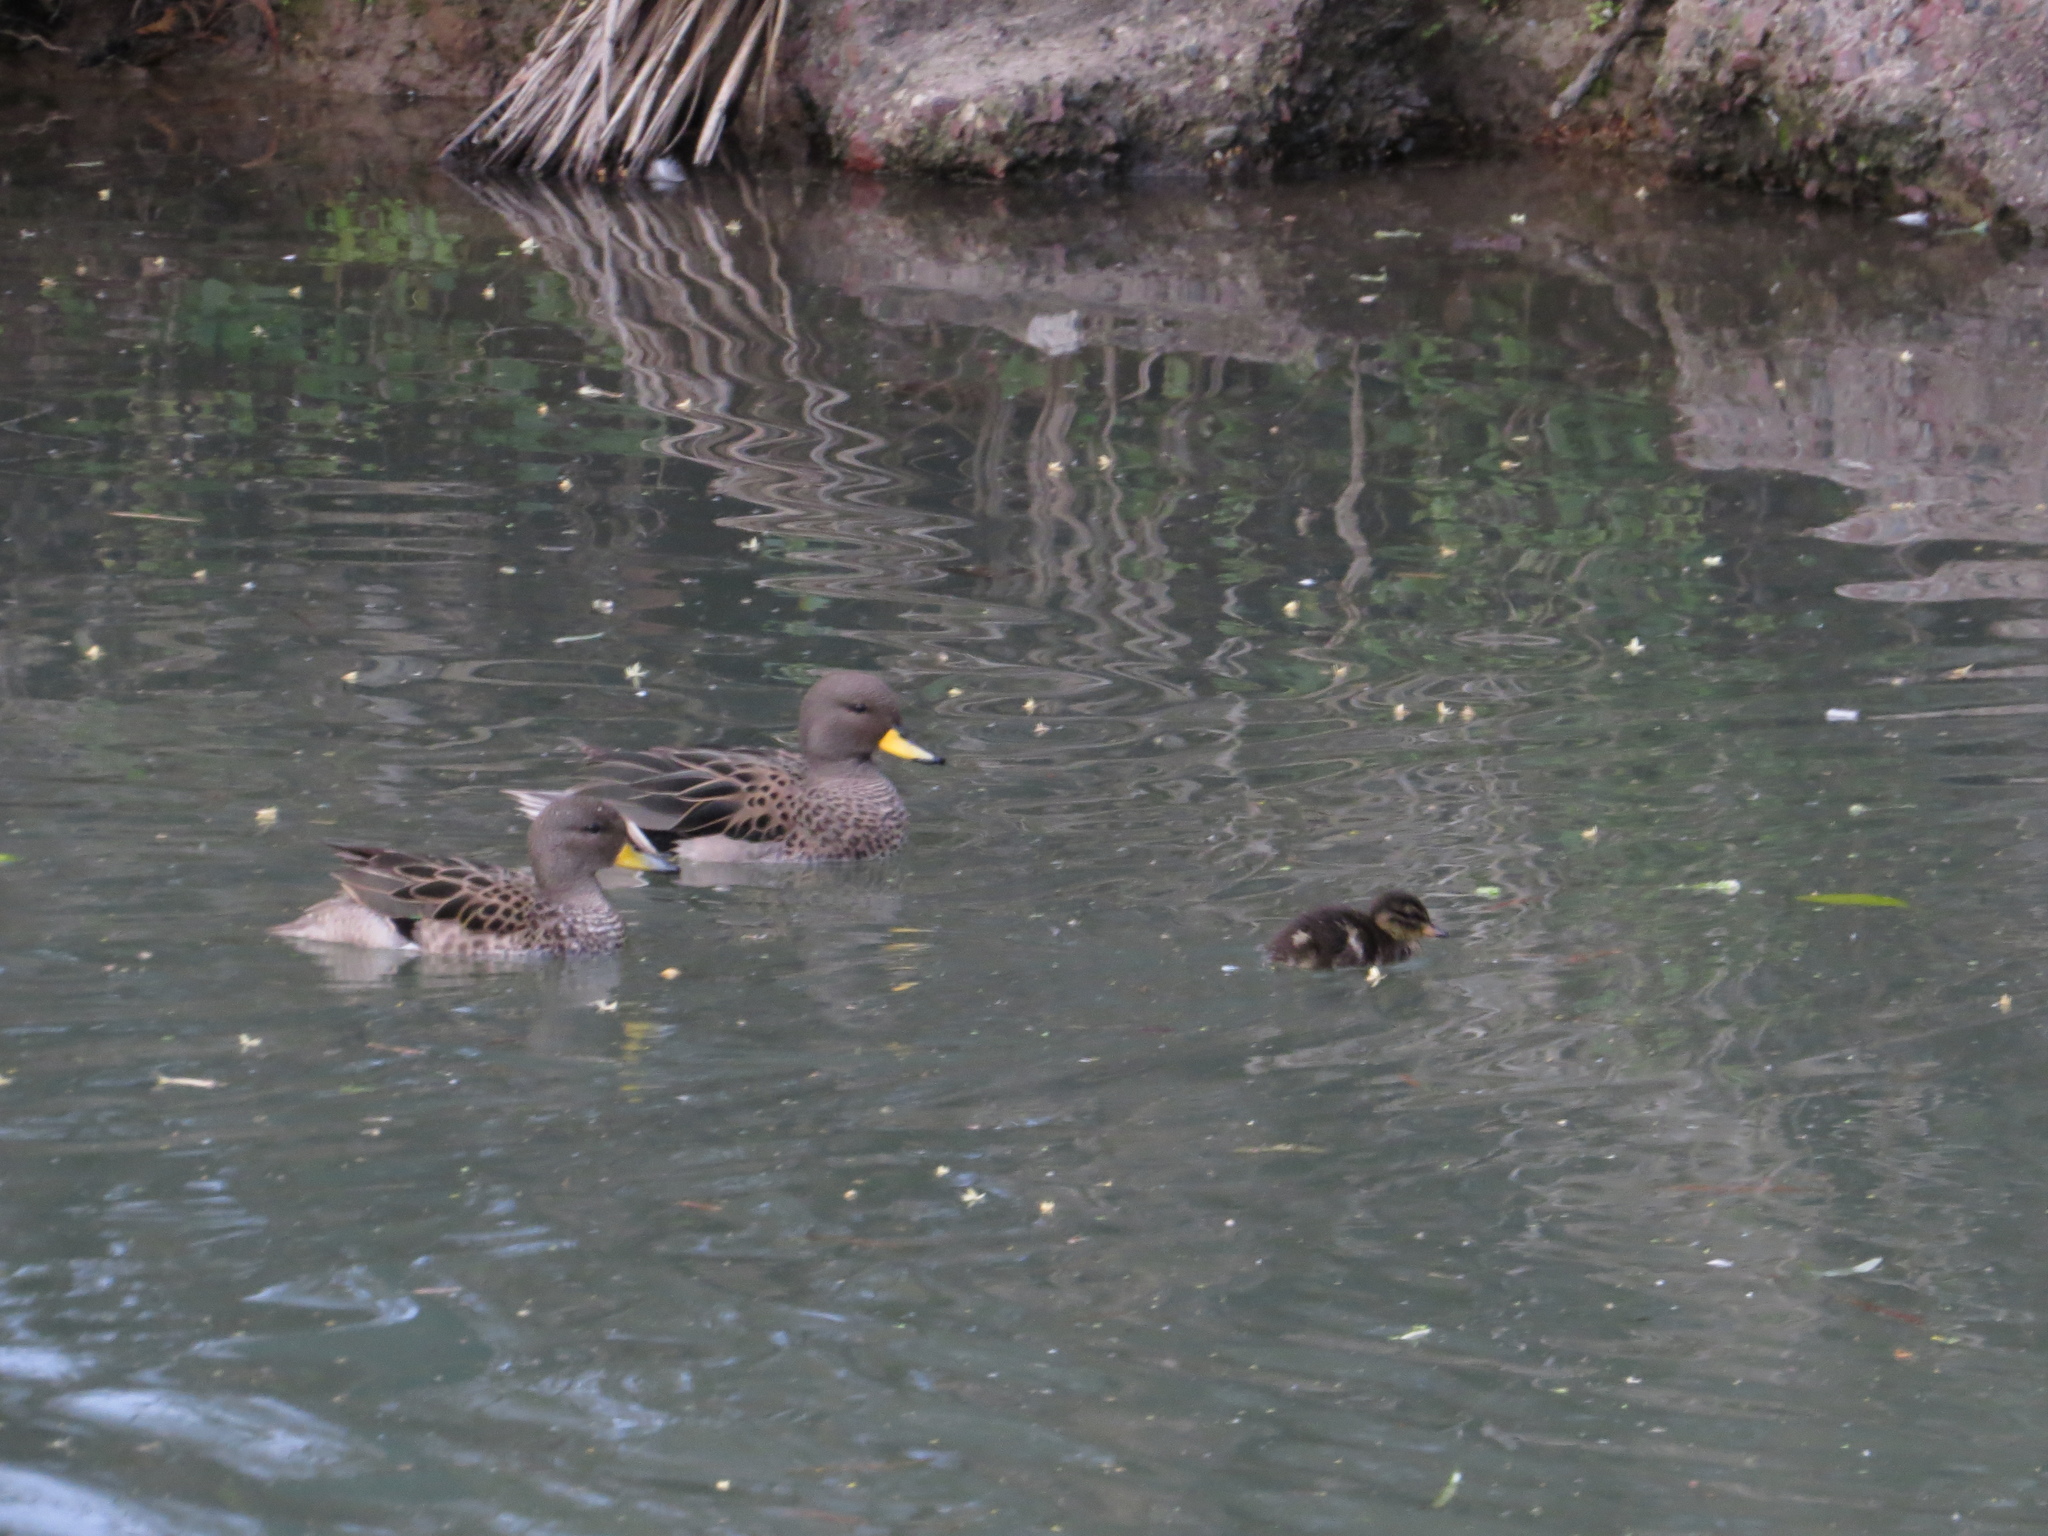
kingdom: Animalia
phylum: Chordata
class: Aves
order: Anseriformes
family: Anatidae
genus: Anas
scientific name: Anas flavirostris
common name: Yellow-billed teal
